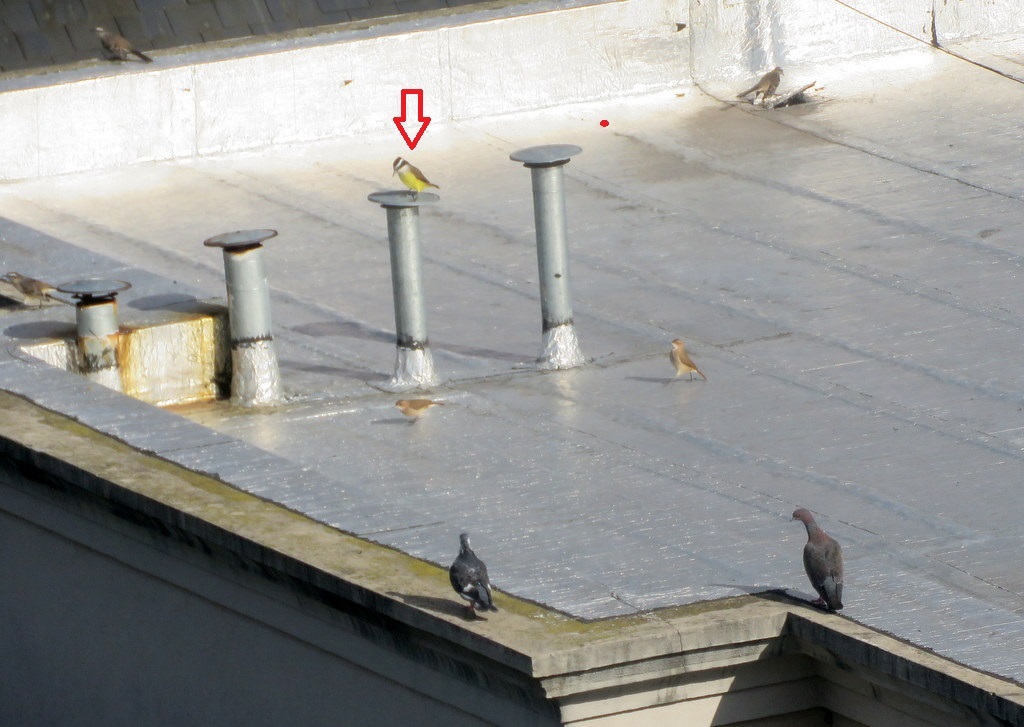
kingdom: Animalia
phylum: Chordata
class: Aves
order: Passeriformes
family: Tyrannidae
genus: Pitangus
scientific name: Pitangus sulphuratus
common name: Great kiskadee
